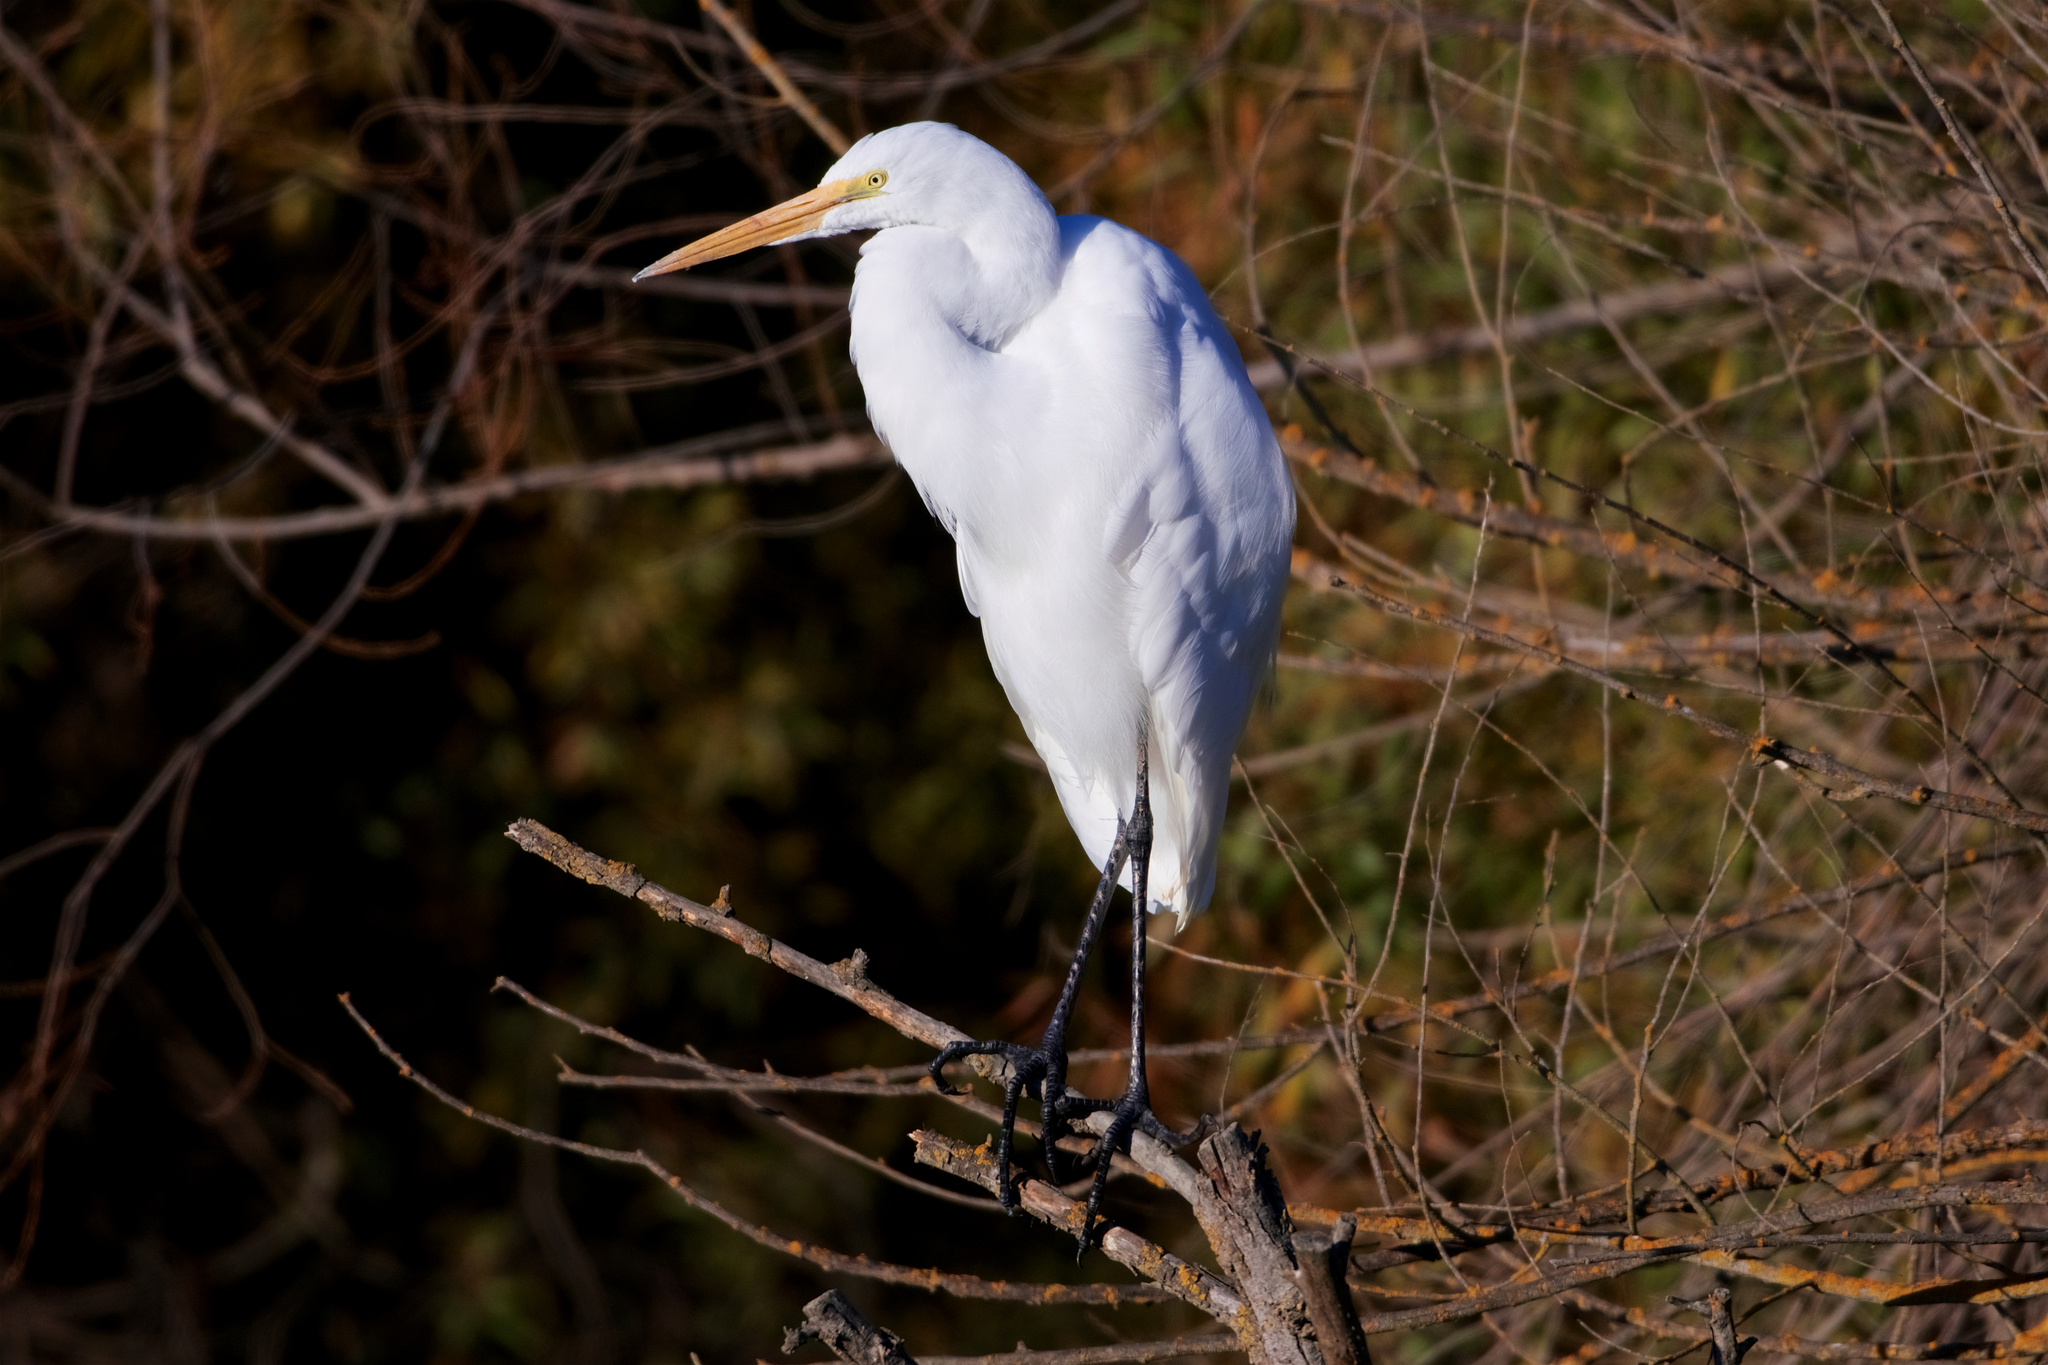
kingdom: Animalia
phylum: Chordata
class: Aves
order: Pelecaniformes
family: Ardeidae
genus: Ardea
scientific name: Ardea alba
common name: Great egret
